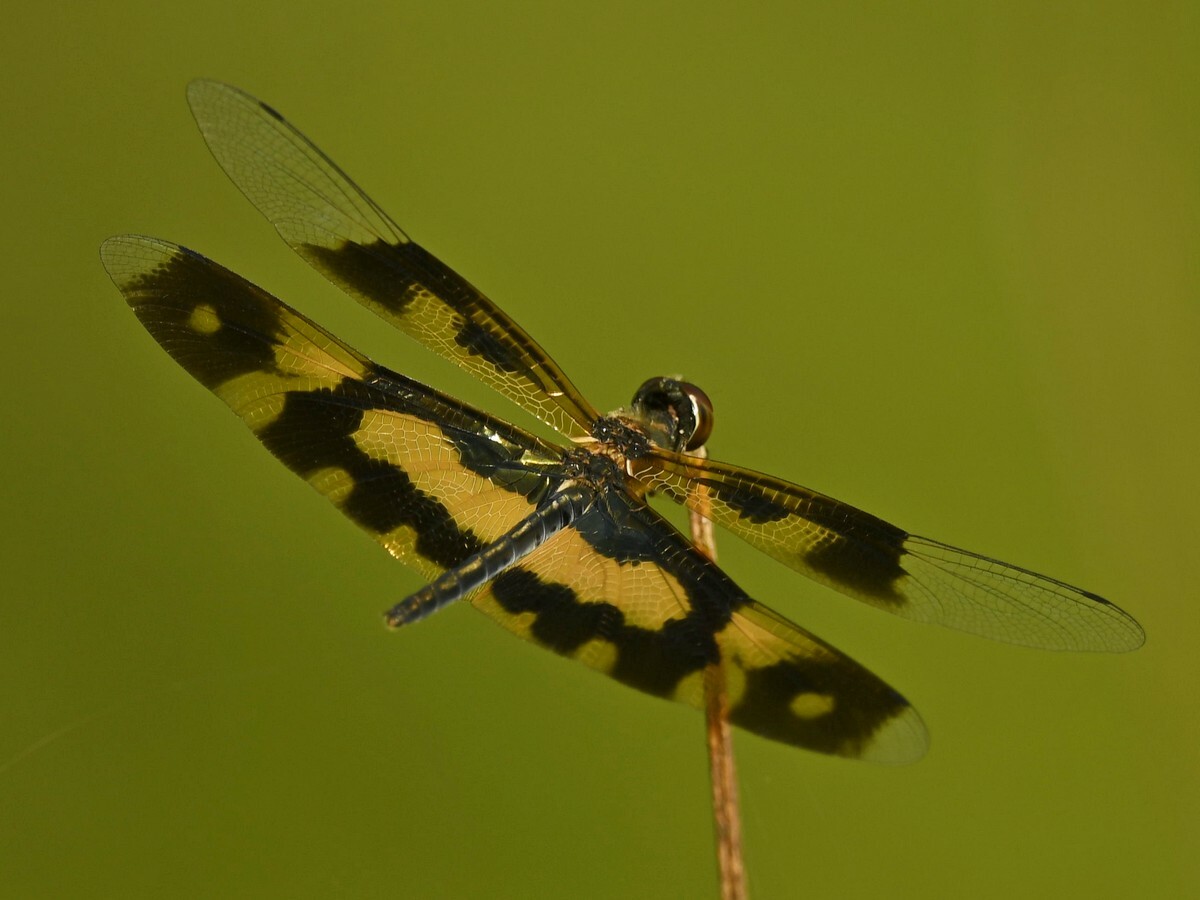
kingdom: Animalia
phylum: Arthropoda
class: Insecta
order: Odonata
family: Libellulidae
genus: Rhyothemis
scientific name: Rhyothemis variegata
